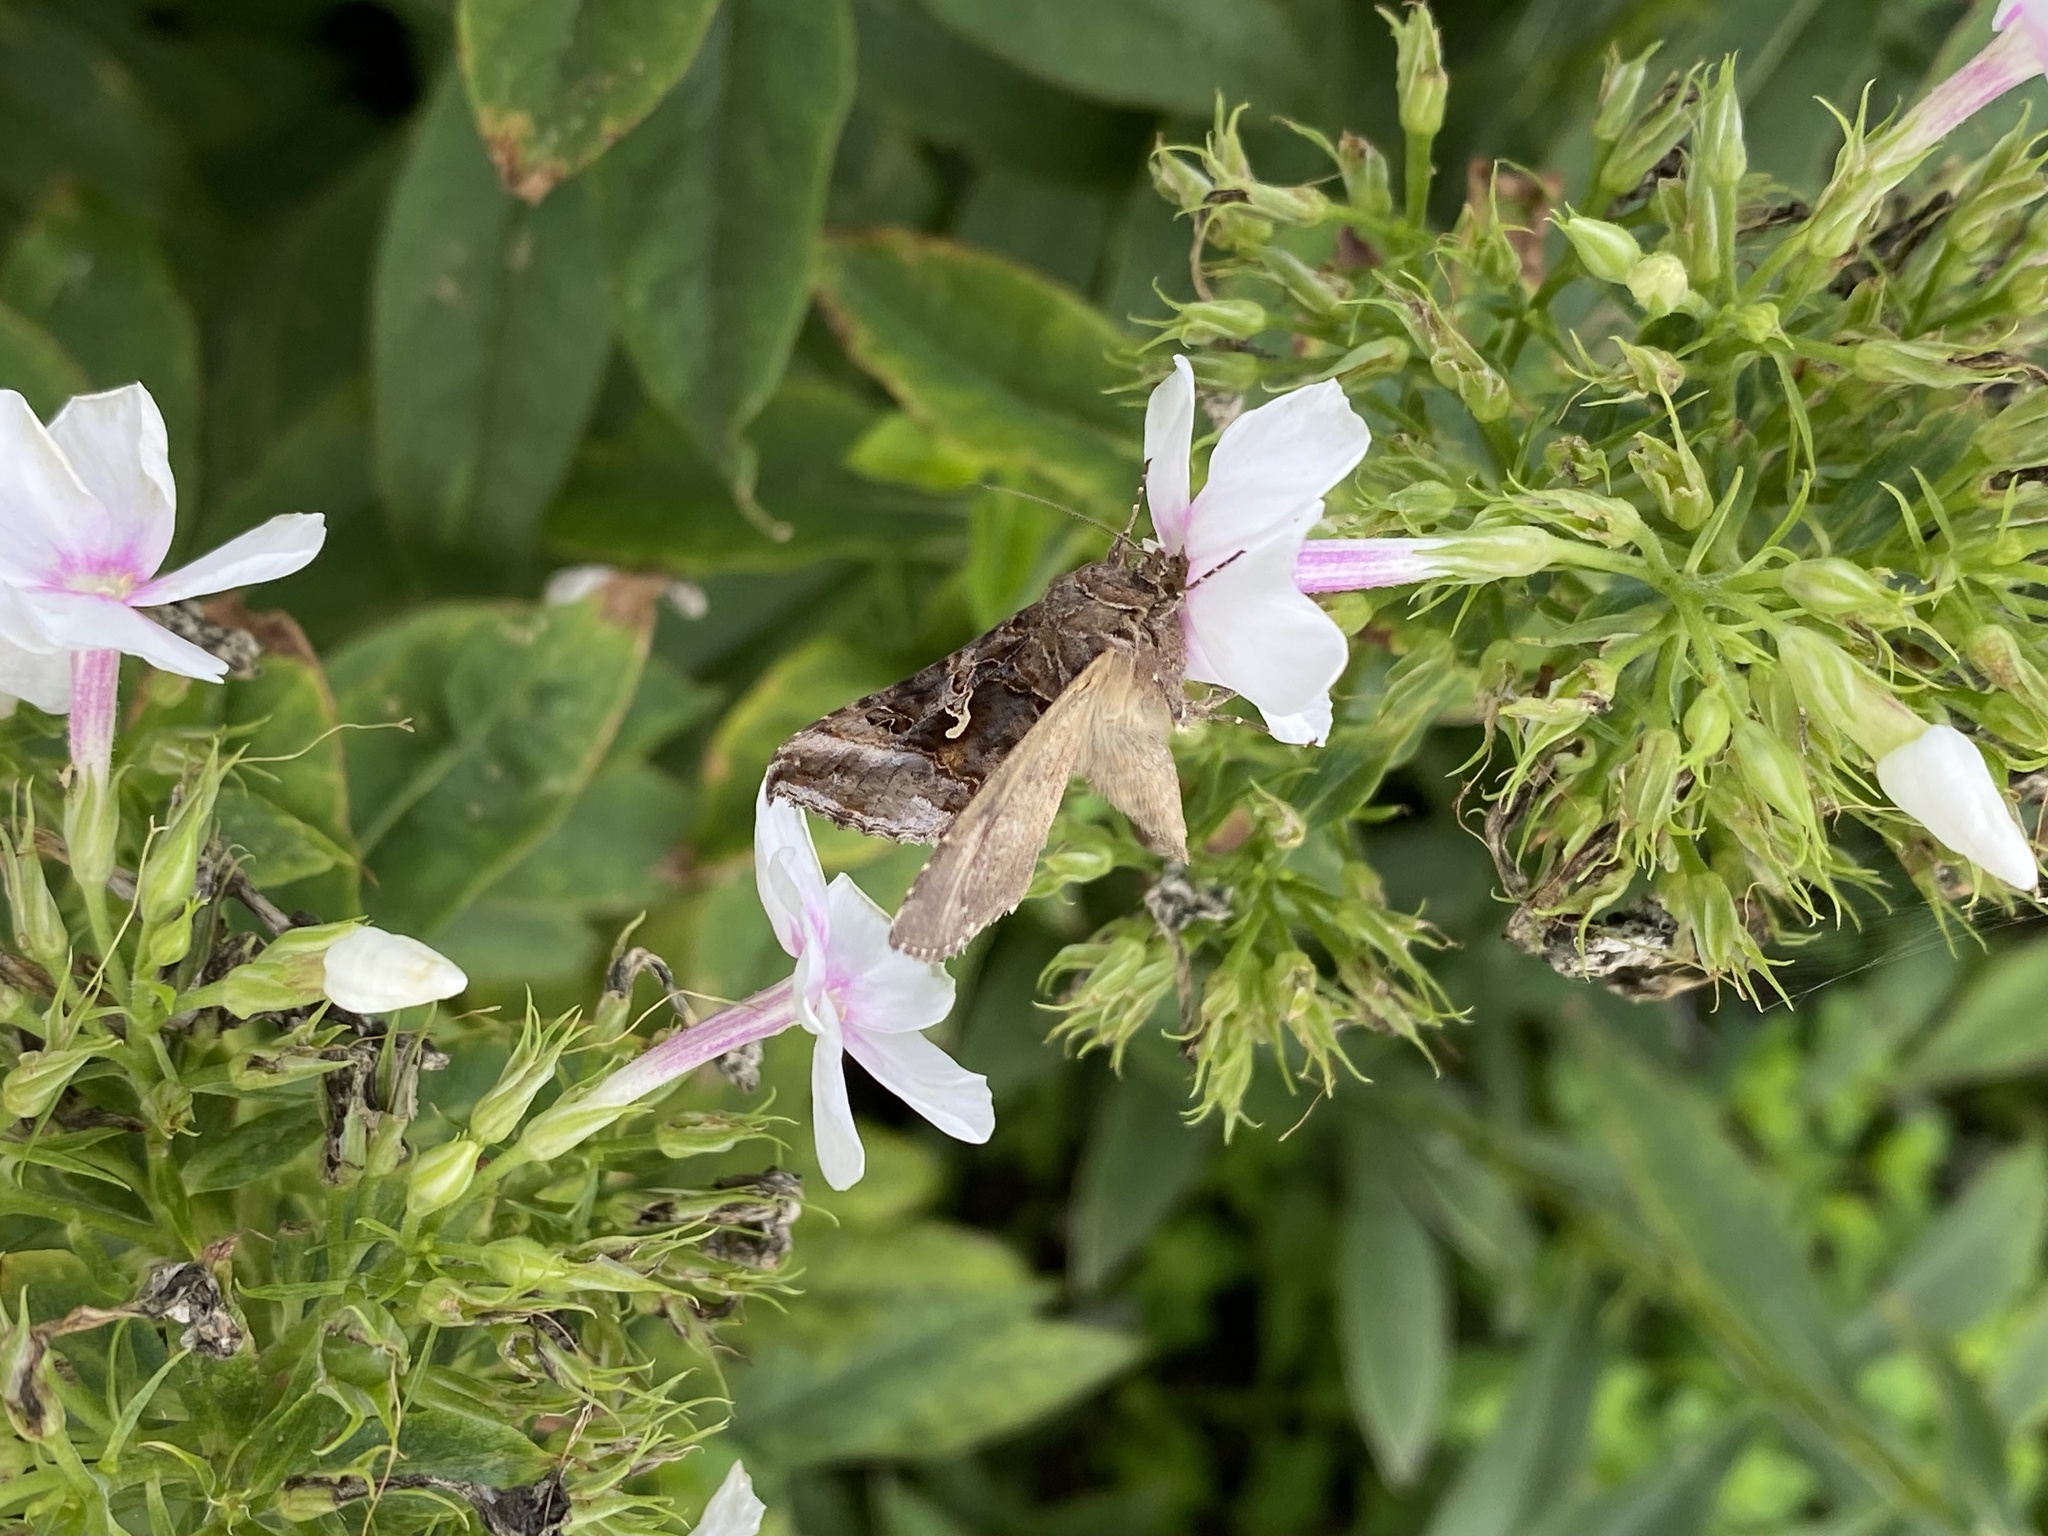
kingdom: Animalia
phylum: Arthropoda
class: Insecta
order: Lepidoptera
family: Noctuidae
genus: Autographa
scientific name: Autographa gamma
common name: Silver y
